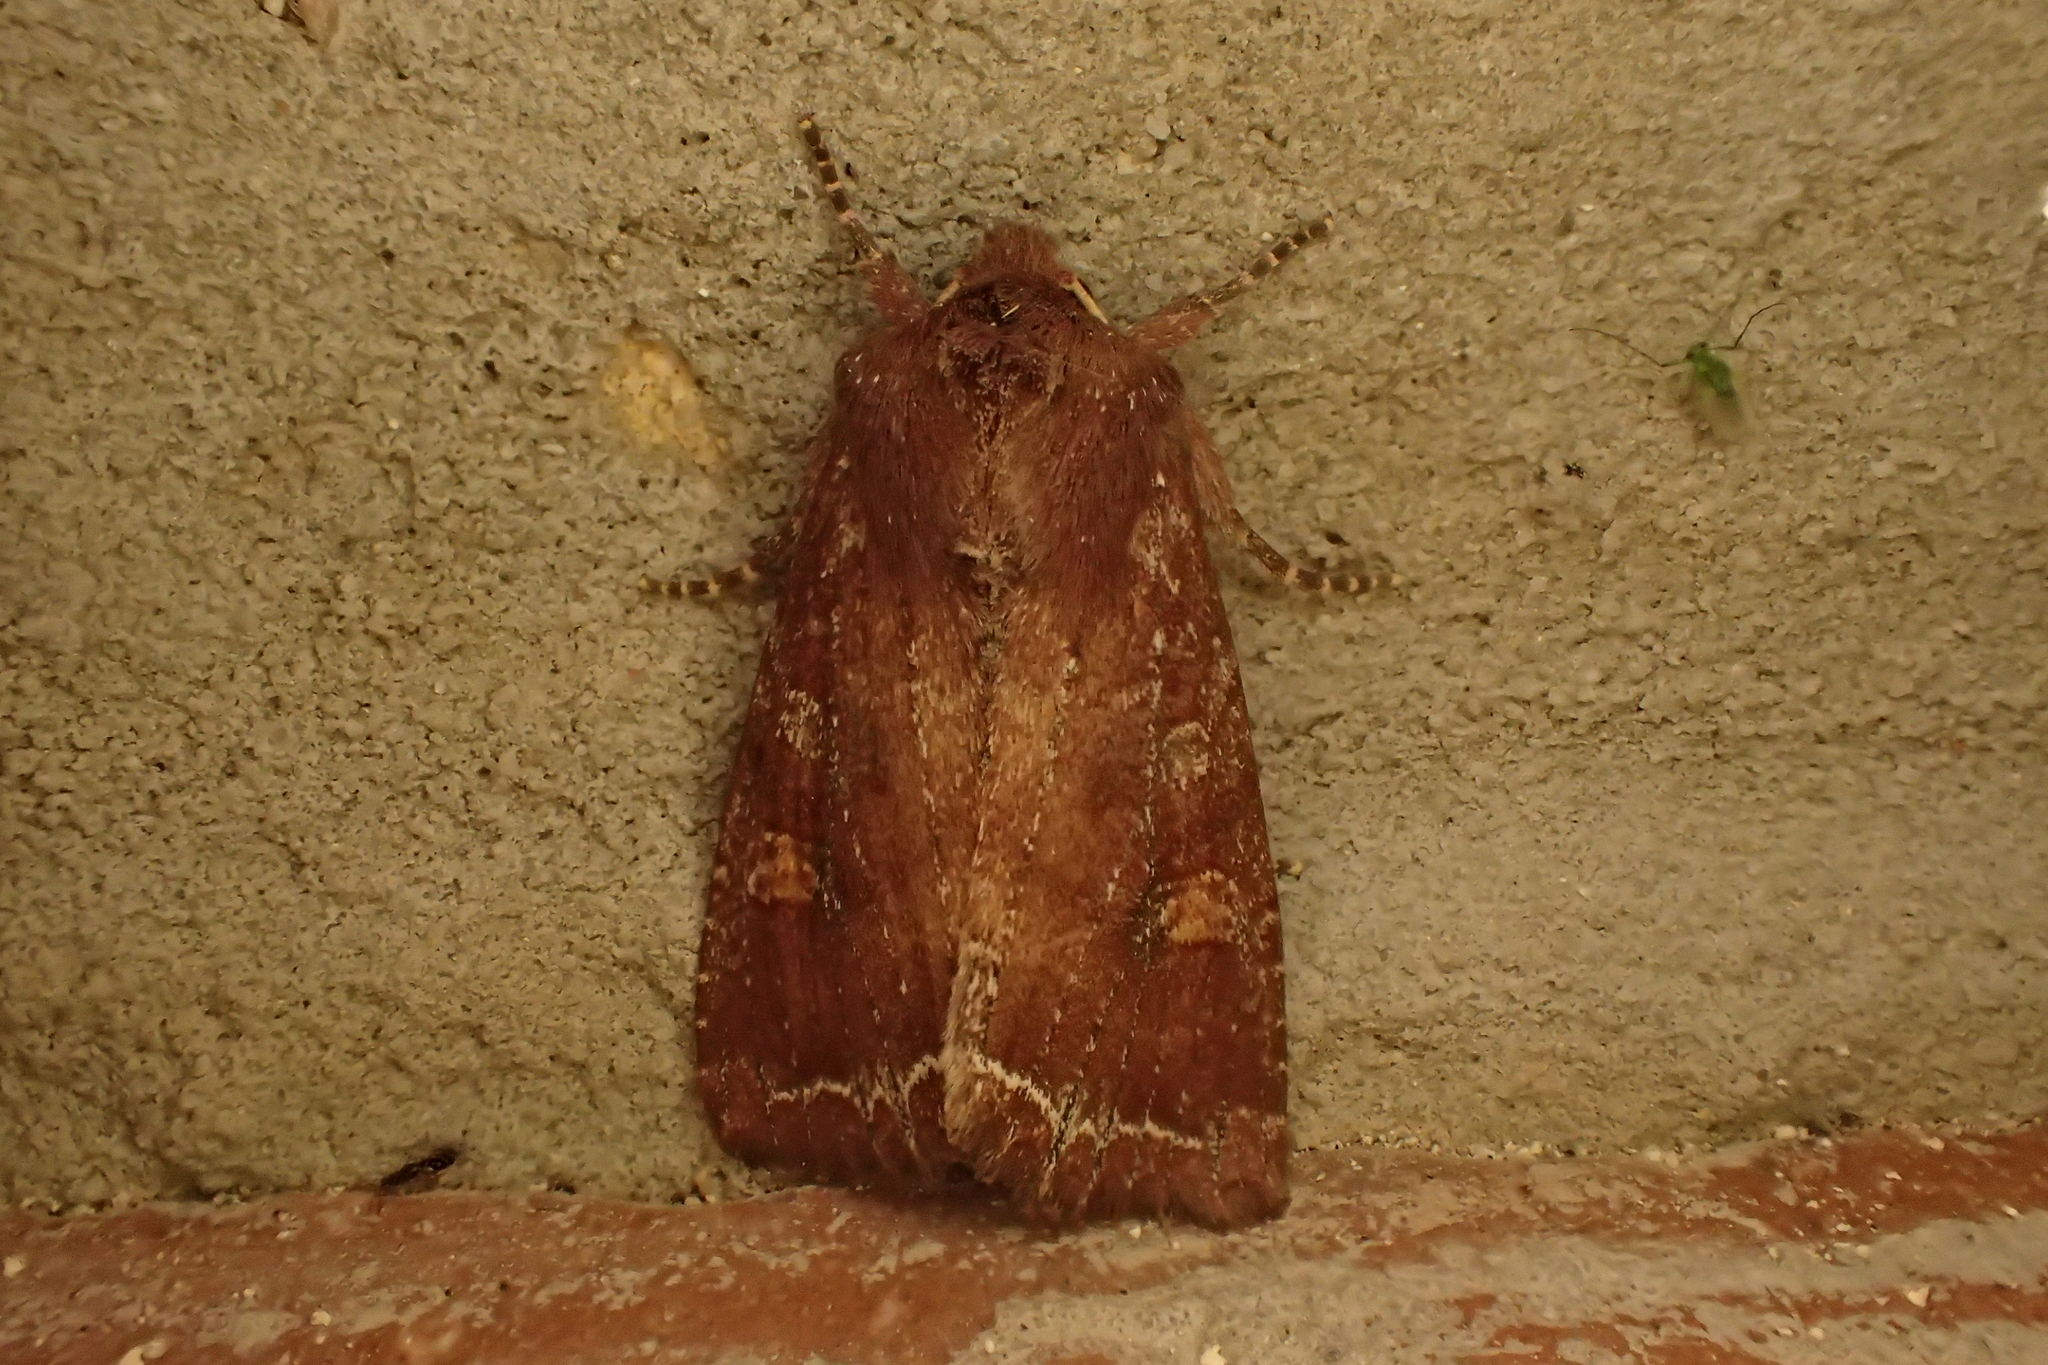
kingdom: Animalia
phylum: Arthropoda
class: Insecta
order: Lepidoptera
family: Noctuidae
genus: Lacanobia
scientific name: Lacanobia oleracea
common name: Bright-line brown-eye
